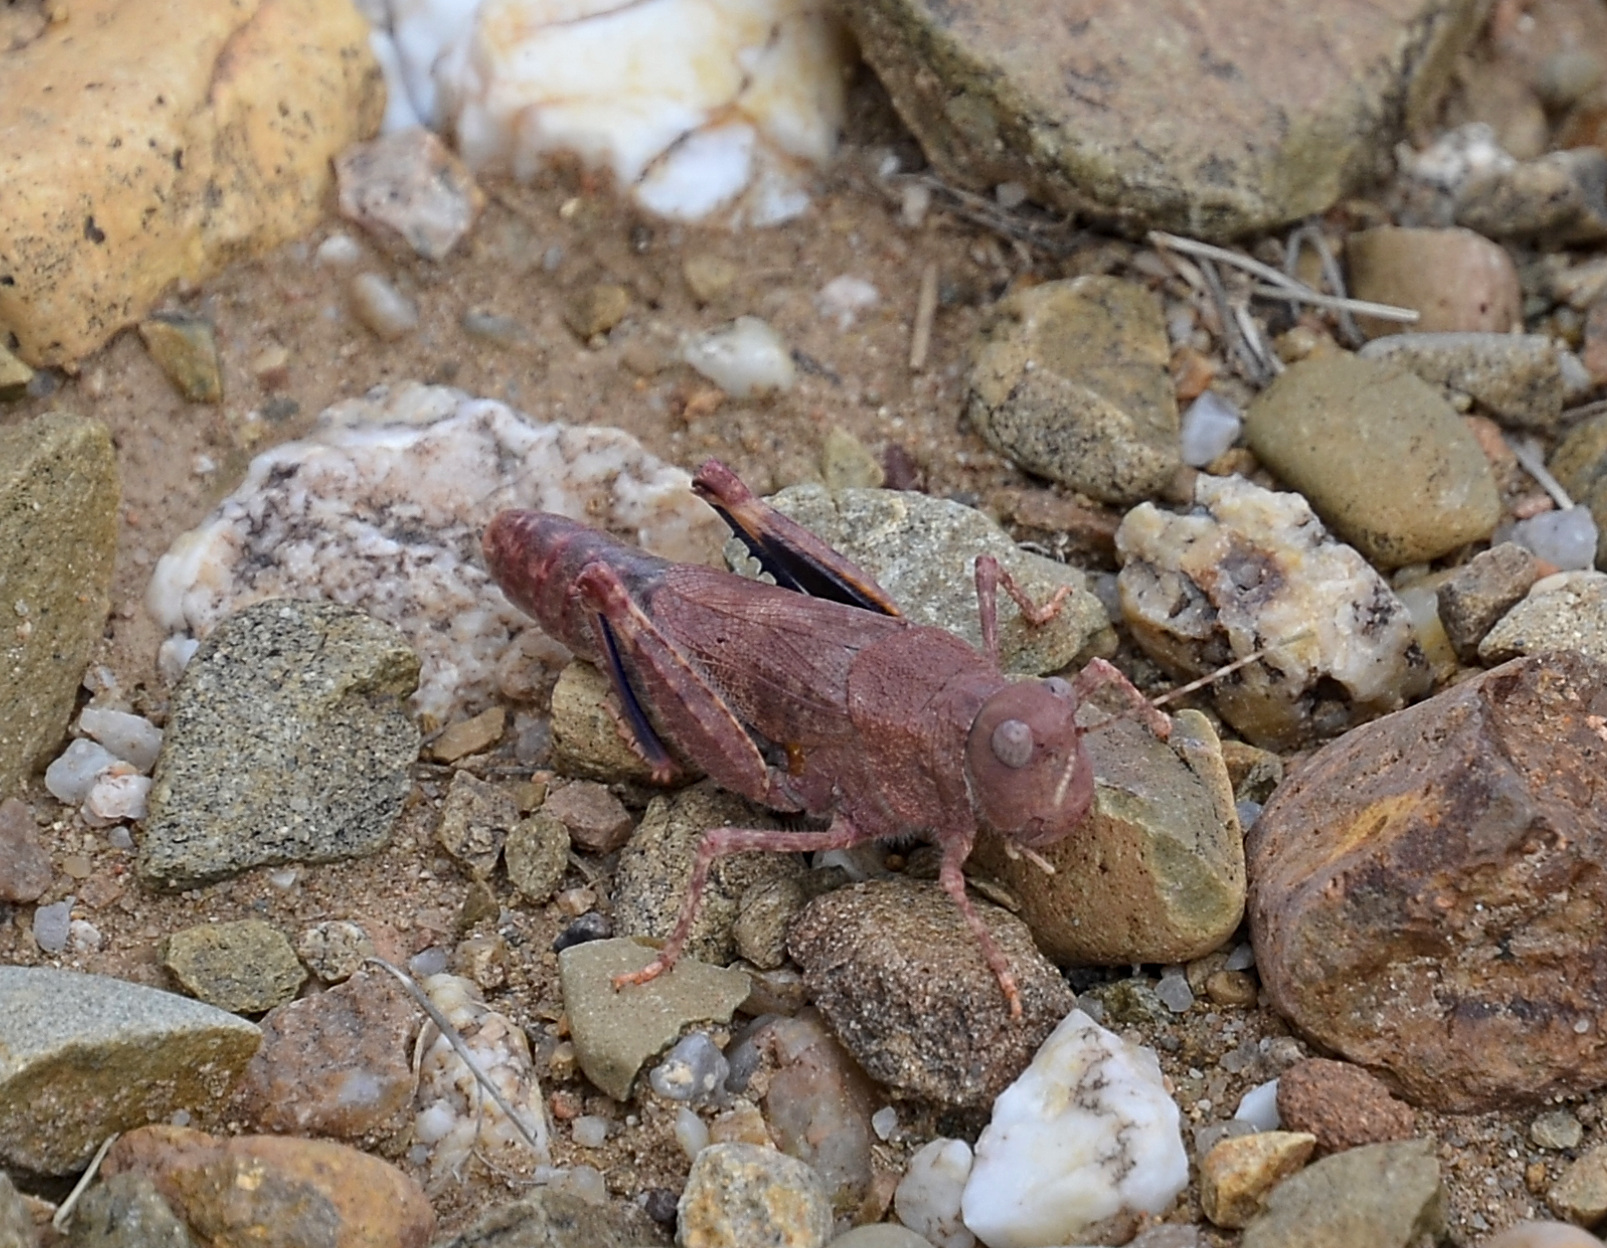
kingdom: Animalia
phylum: Arthropoda
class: Insecta
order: Orthoptera
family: Acrididae
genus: Bryodema
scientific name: Bryodema gebleri
